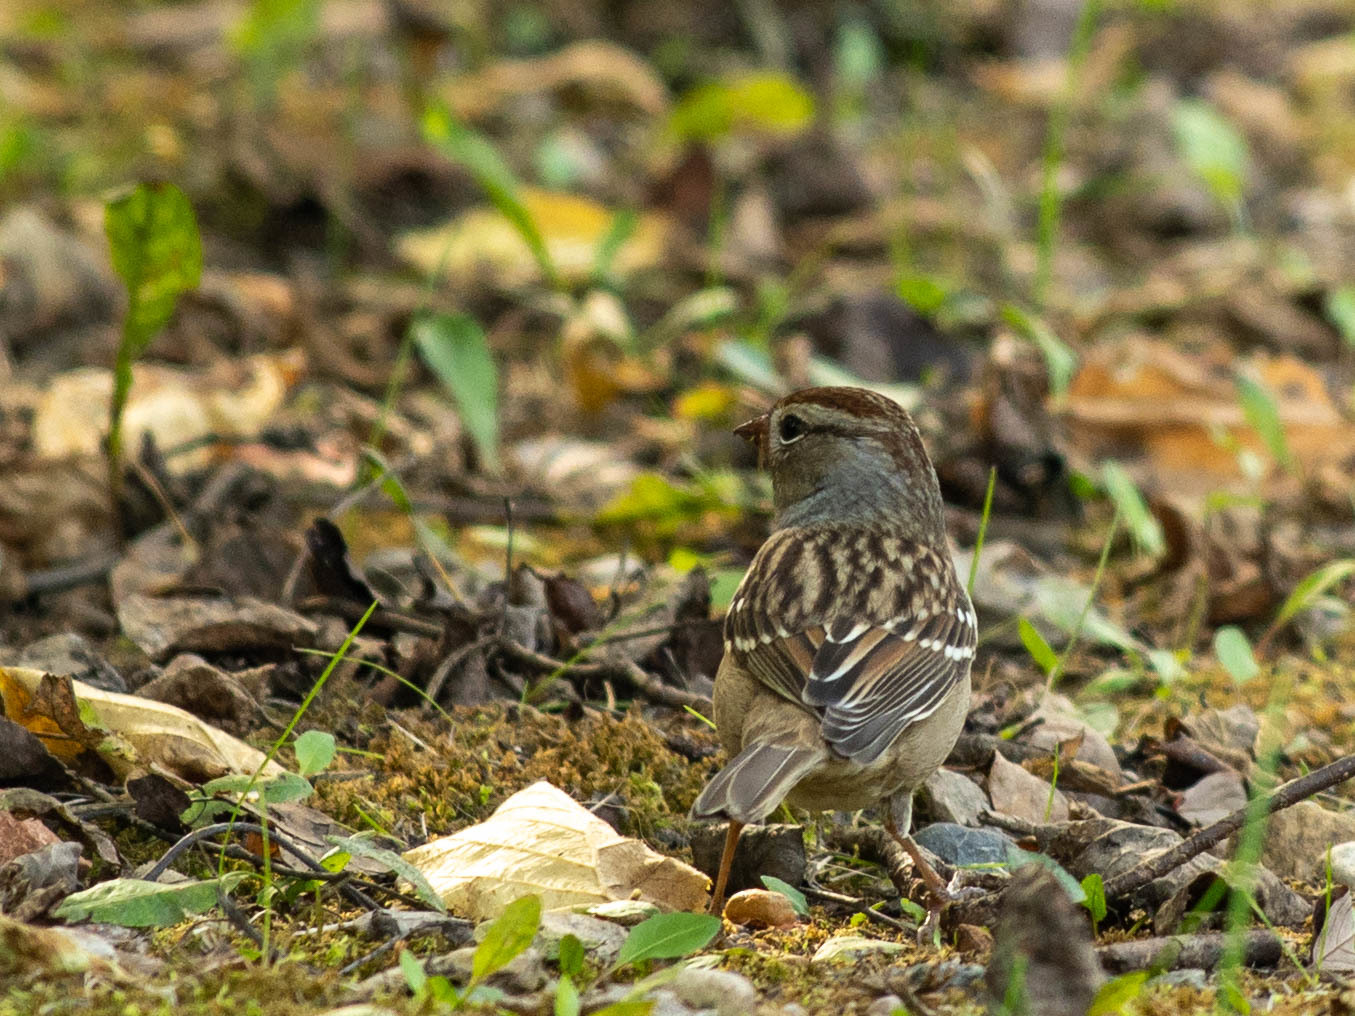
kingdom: Animalia
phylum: Chordata
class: Aves
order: Passeriformes
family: Passerellidae
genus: Zonotrichia
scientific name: Zonotrichia leucophrys
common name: White-crowned sparrow
